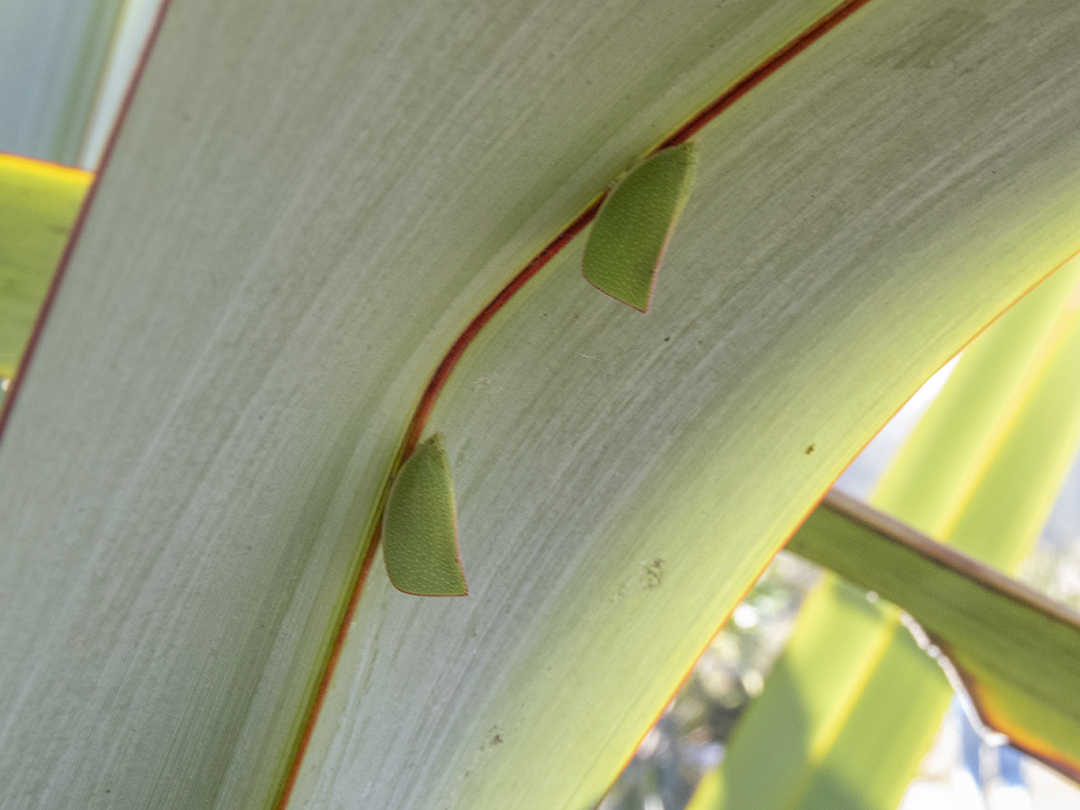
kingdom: Animalia
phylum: Arthropoda
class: Insecta
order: Hemiptera
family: Flatidae
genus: Siphanta
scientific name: Siphanta acuta
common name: Torpedo bug
